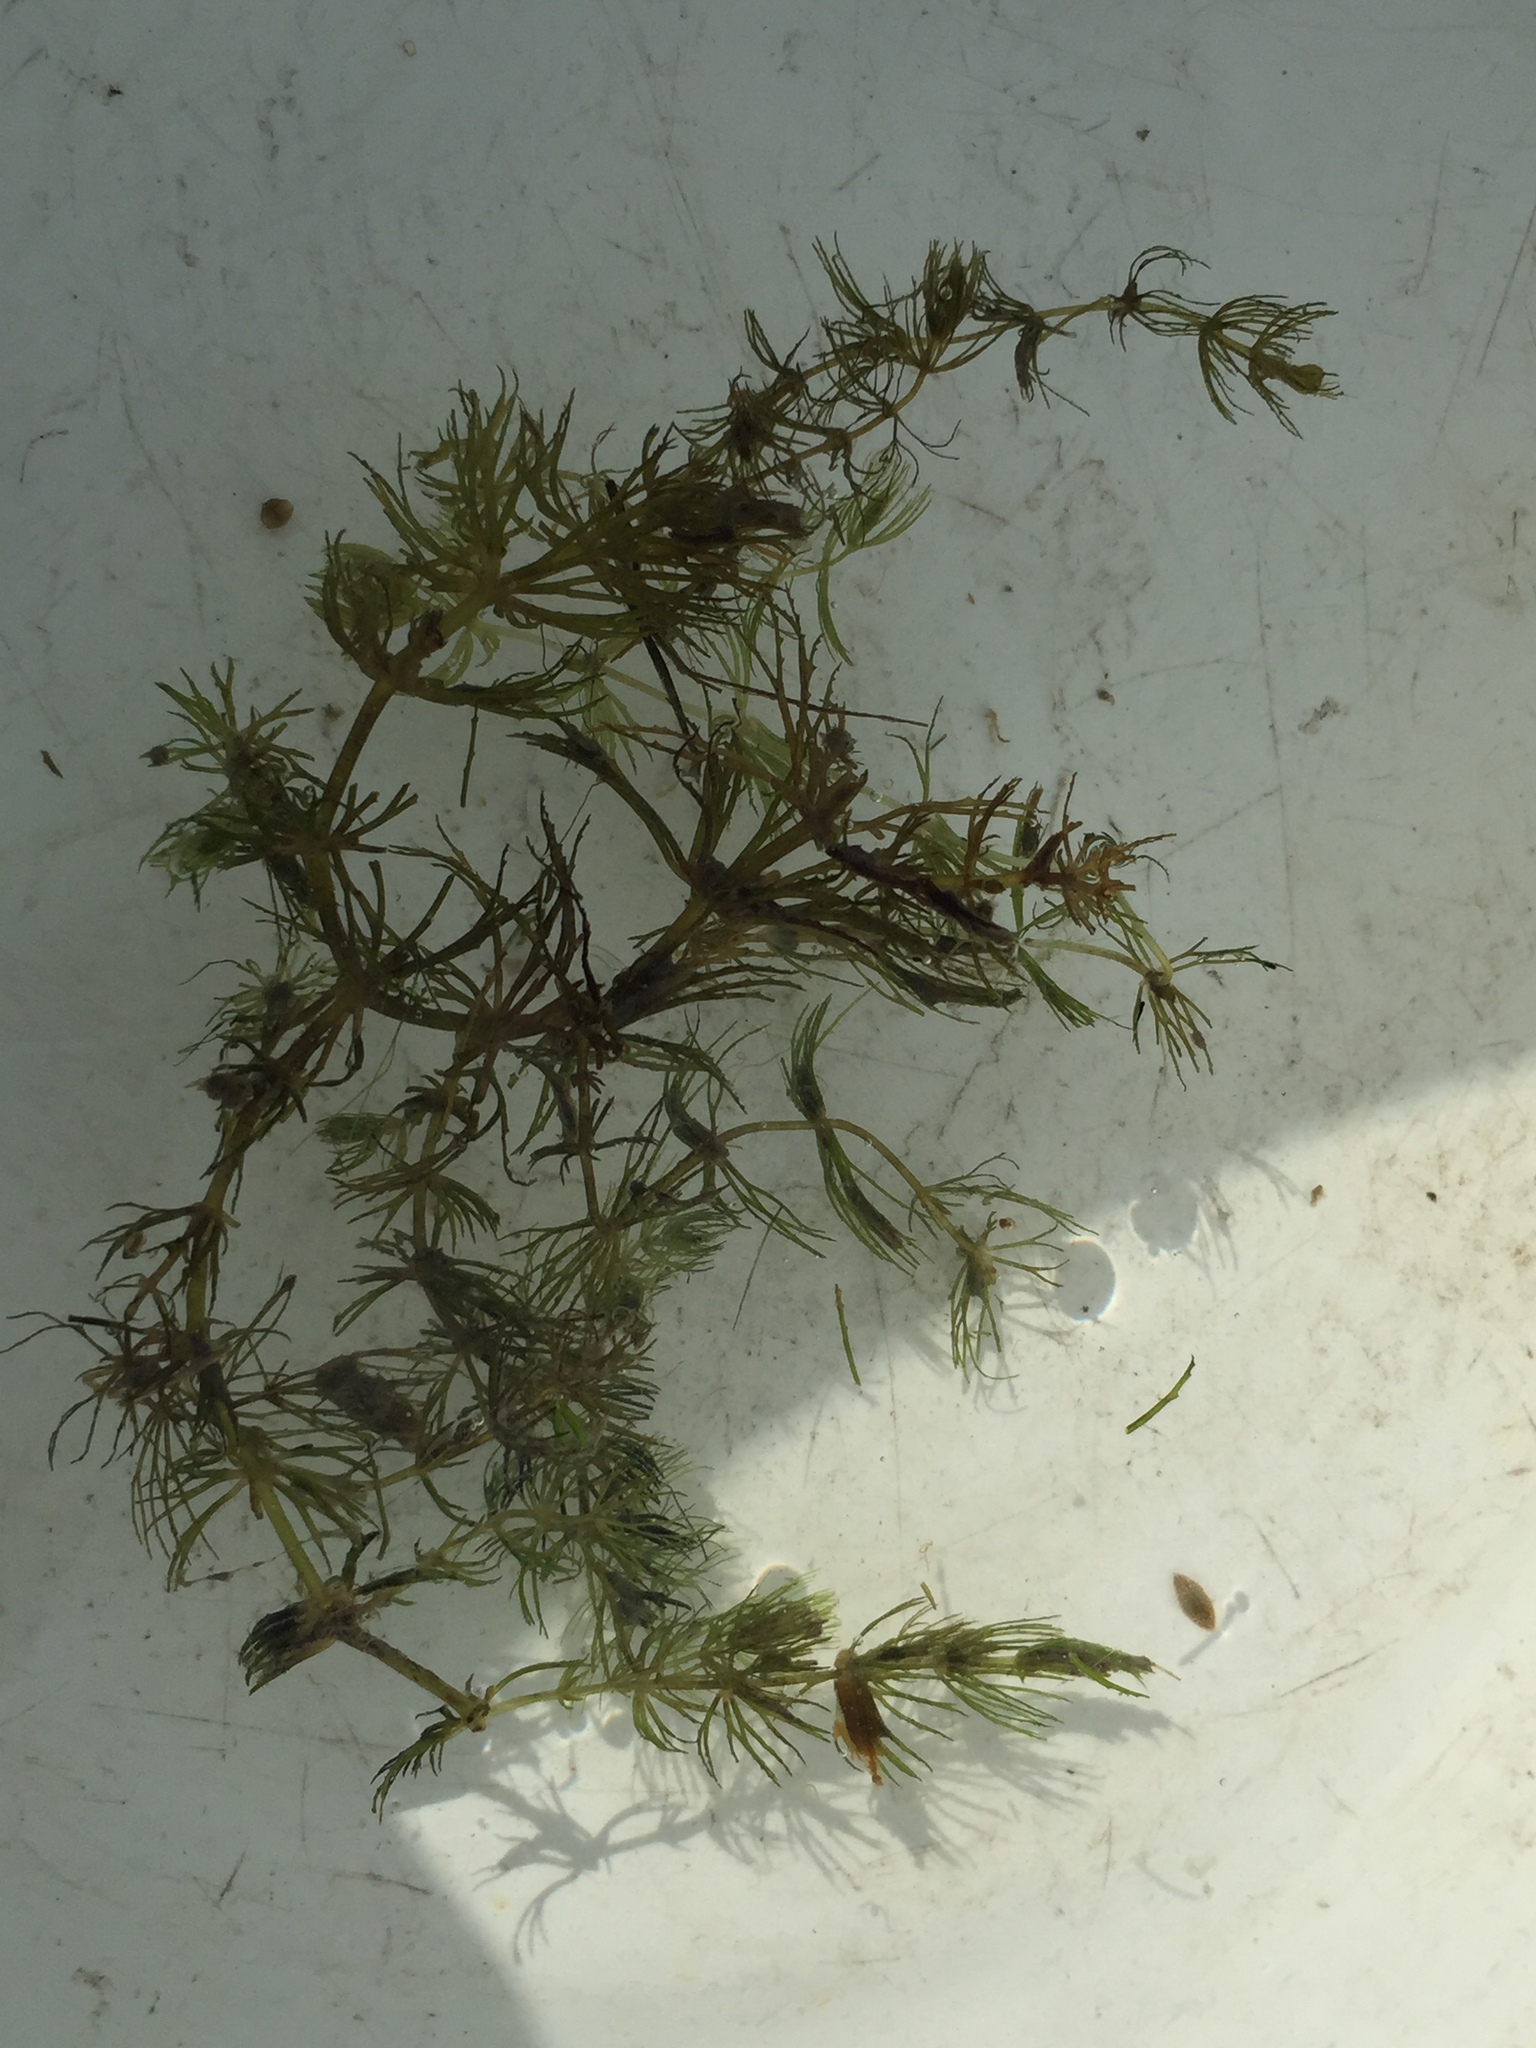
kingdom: Plantae
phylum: Tracheophyta
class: Magnoliopsida
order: Ceratophyllales
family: Ceratophyllaceae
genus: Ceratophyllum
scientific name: Ceratophyllum demersum
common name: Rigid hornwort
